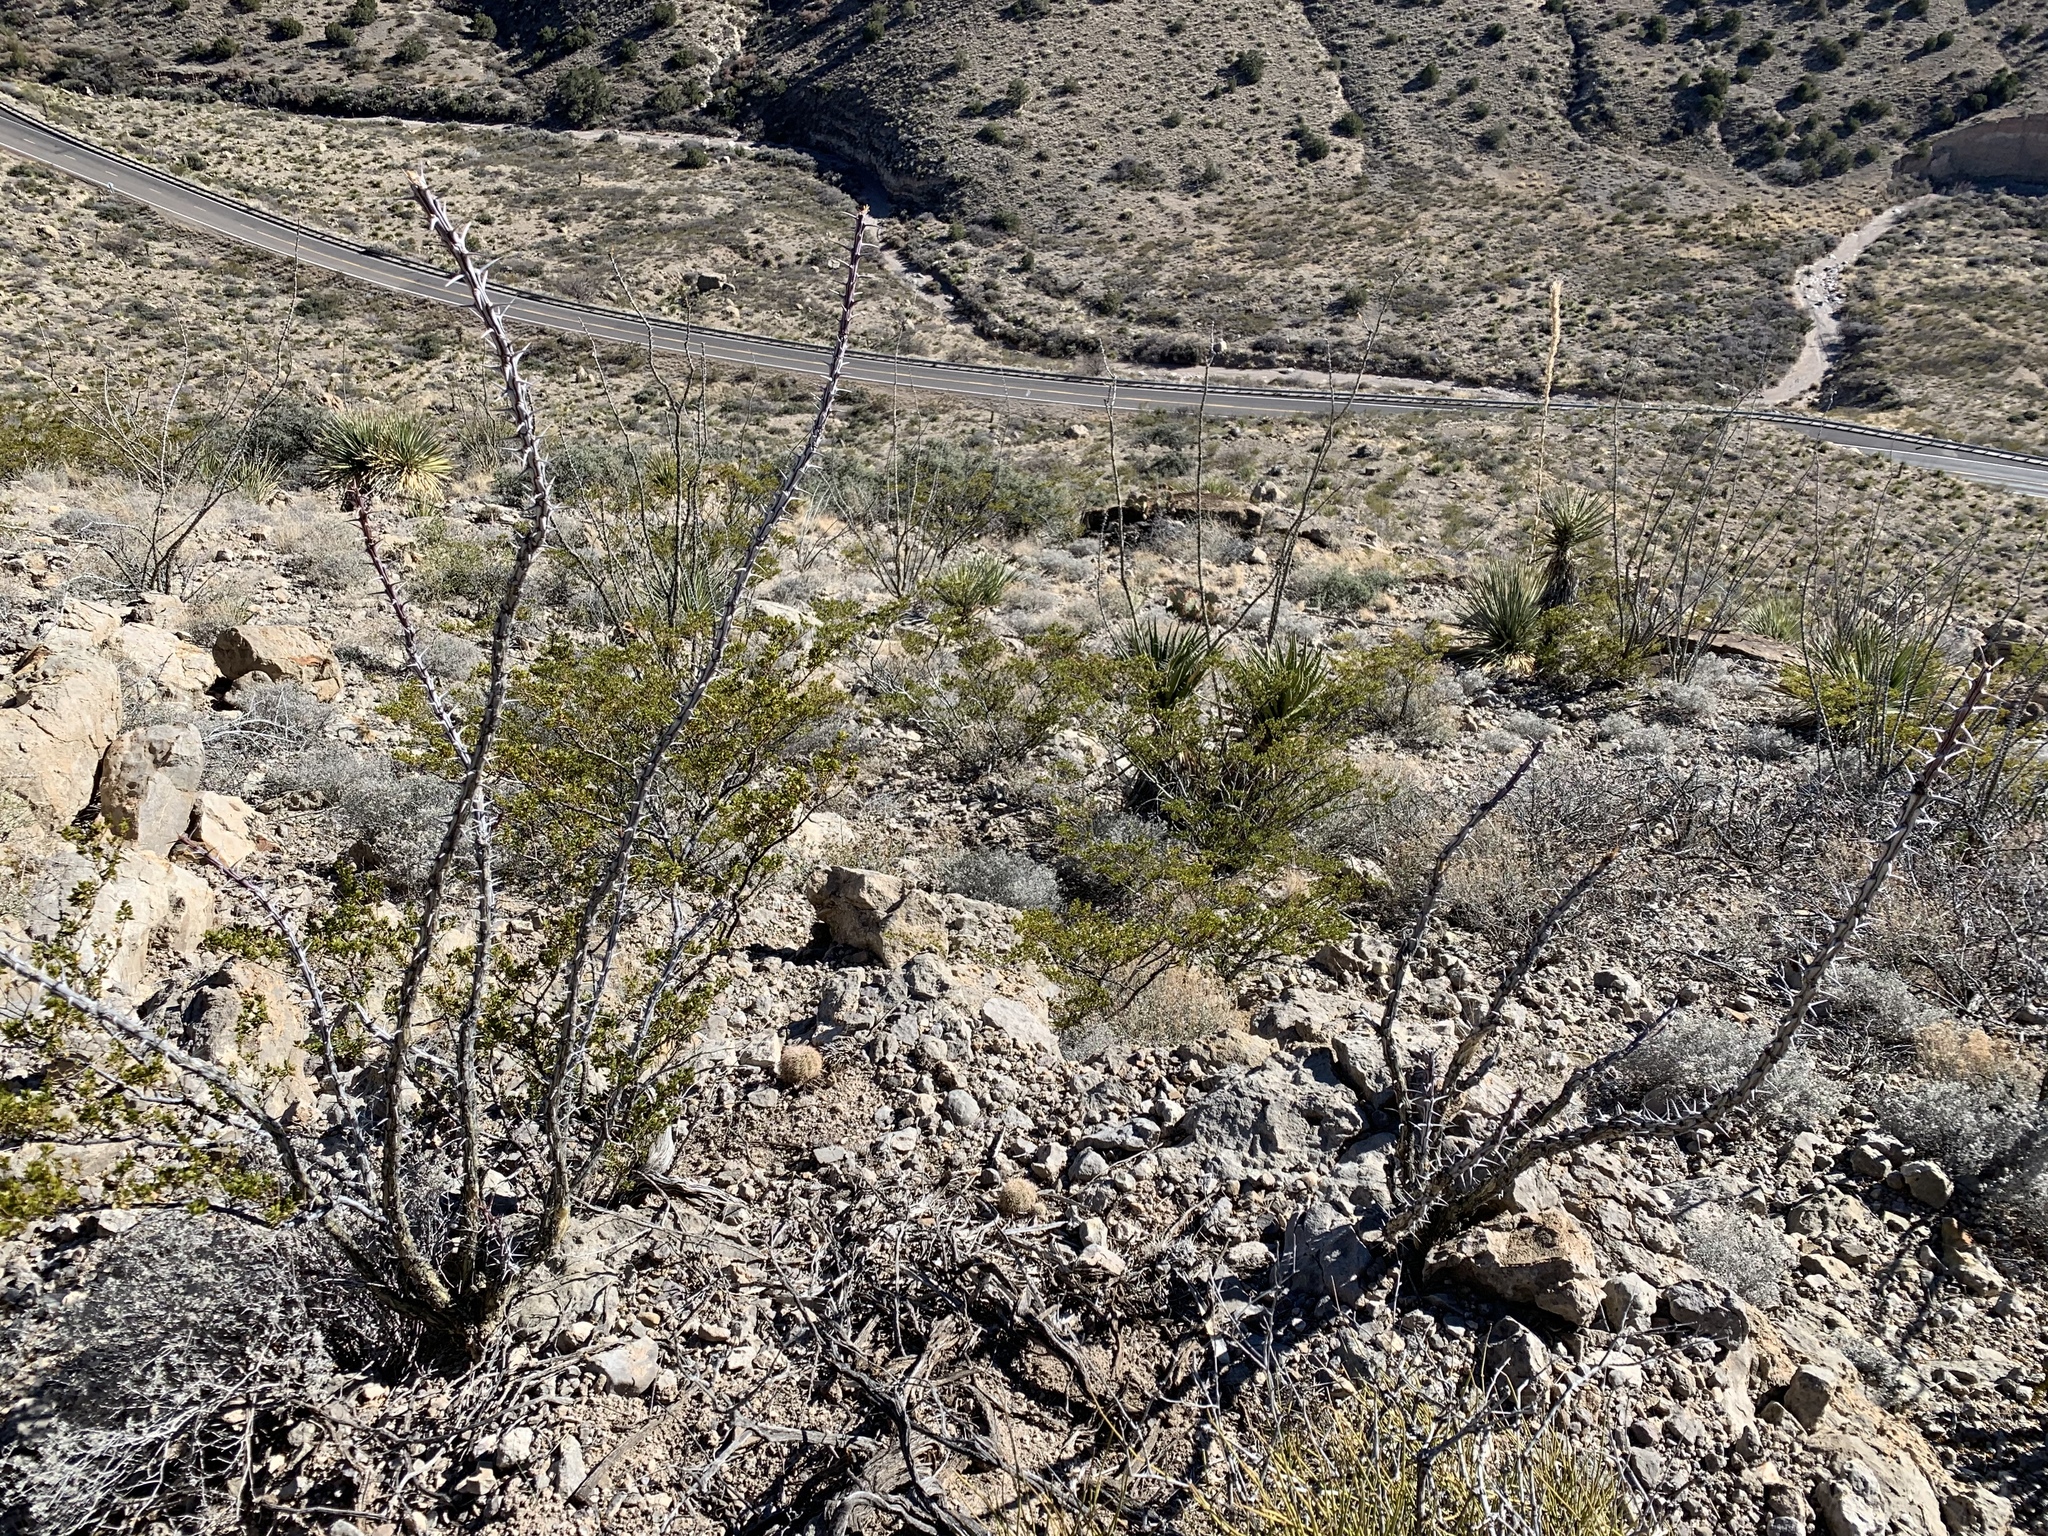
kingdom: Plantae
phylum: Tracheophyta
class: Magnoliopsida
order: Ericales
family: Fouquieriaceae
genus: Fouquieria
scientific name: Fouquieria splendens
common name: Vine-cactus
